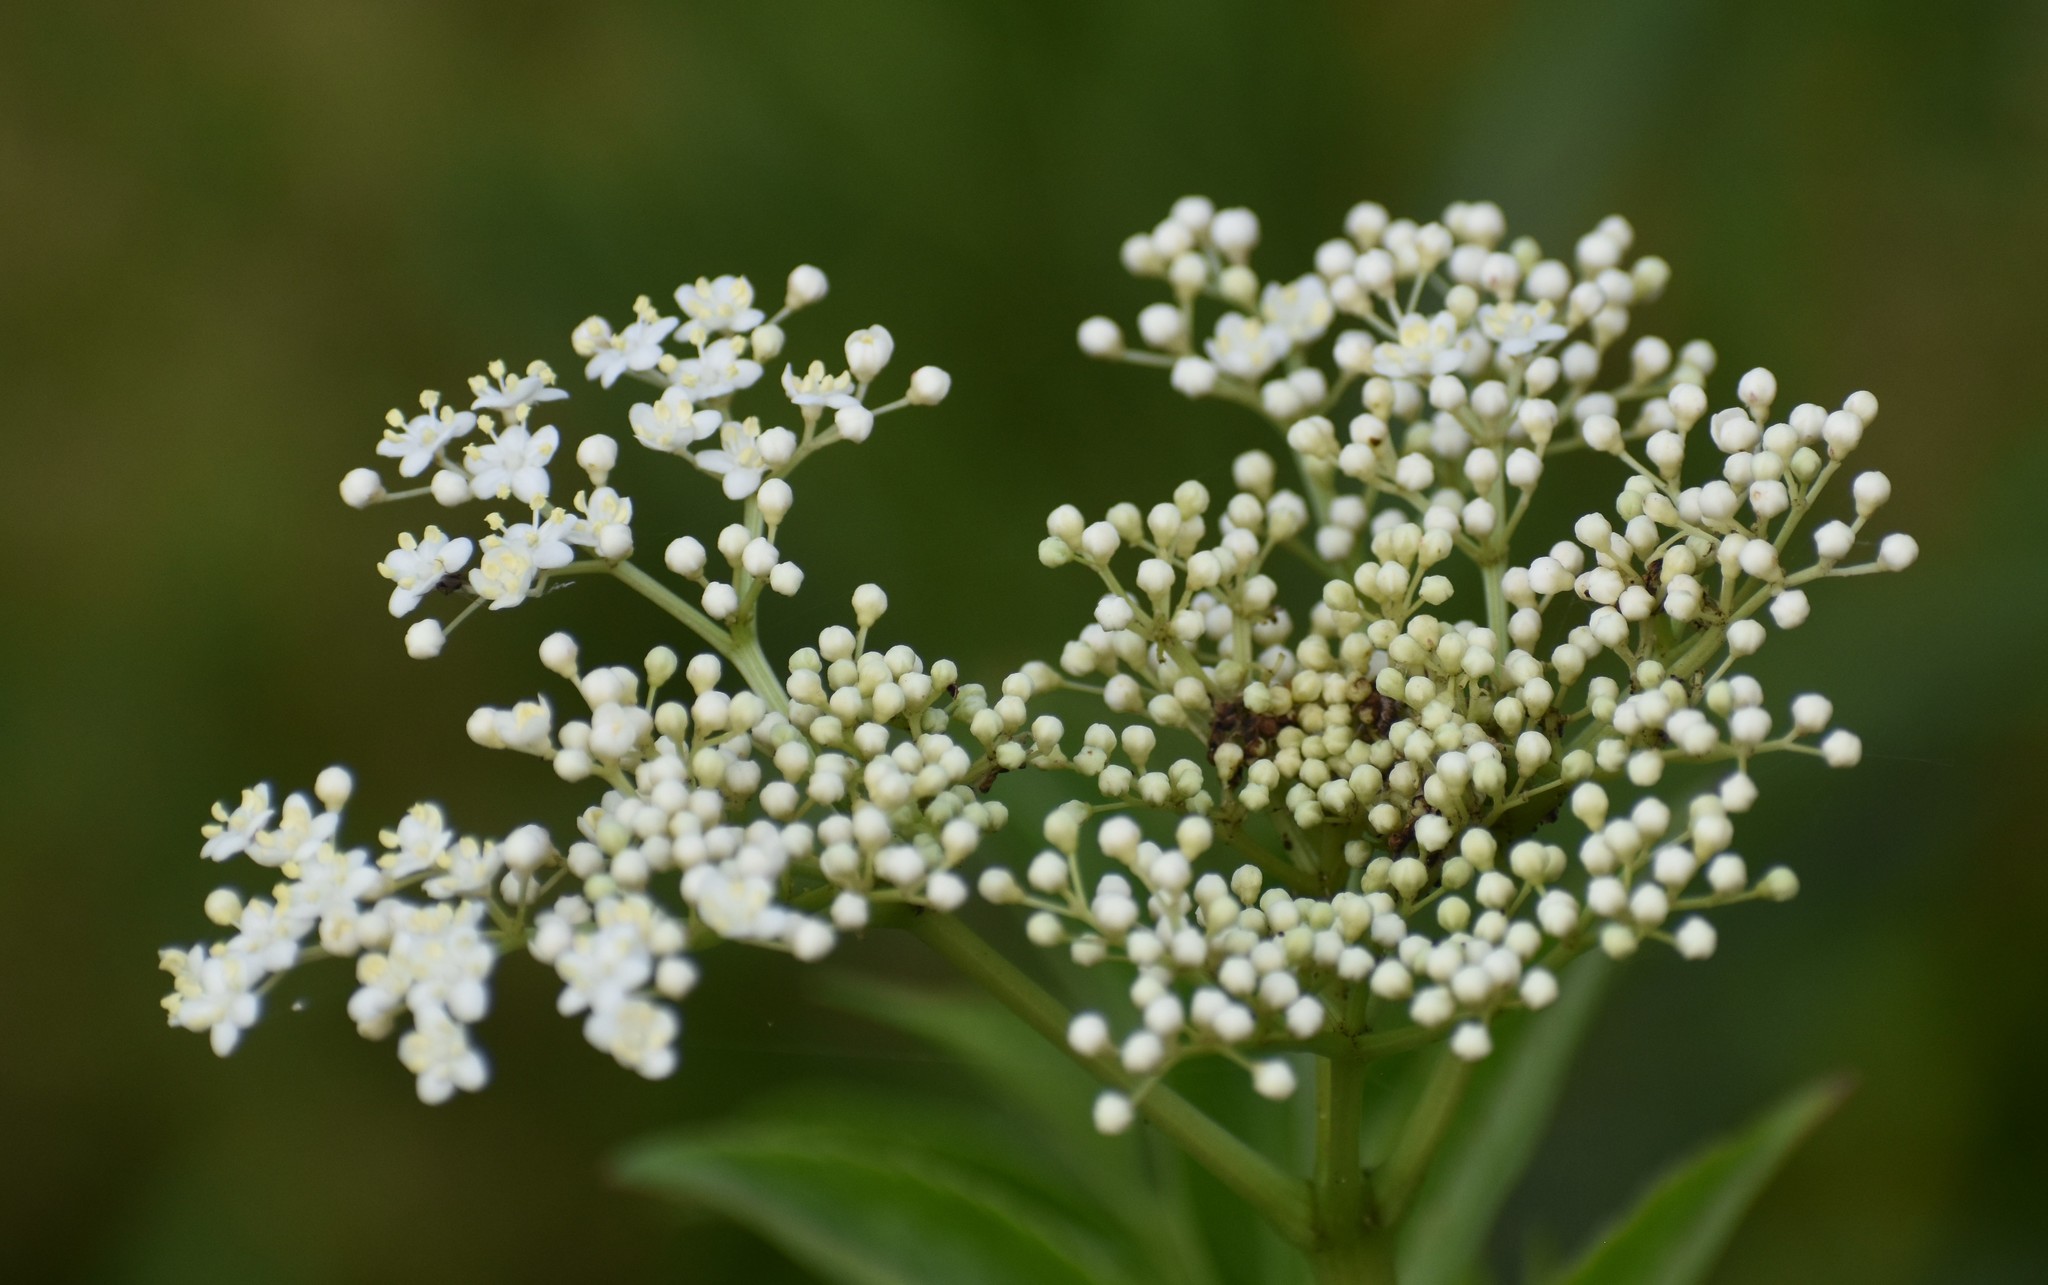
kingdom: Plantae
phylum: Tracheophyta
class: Magnoliopsida
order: Dipsacales
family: Viburnaceae
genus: Sambucus
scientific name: Sambucus canadensis
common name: American elder
